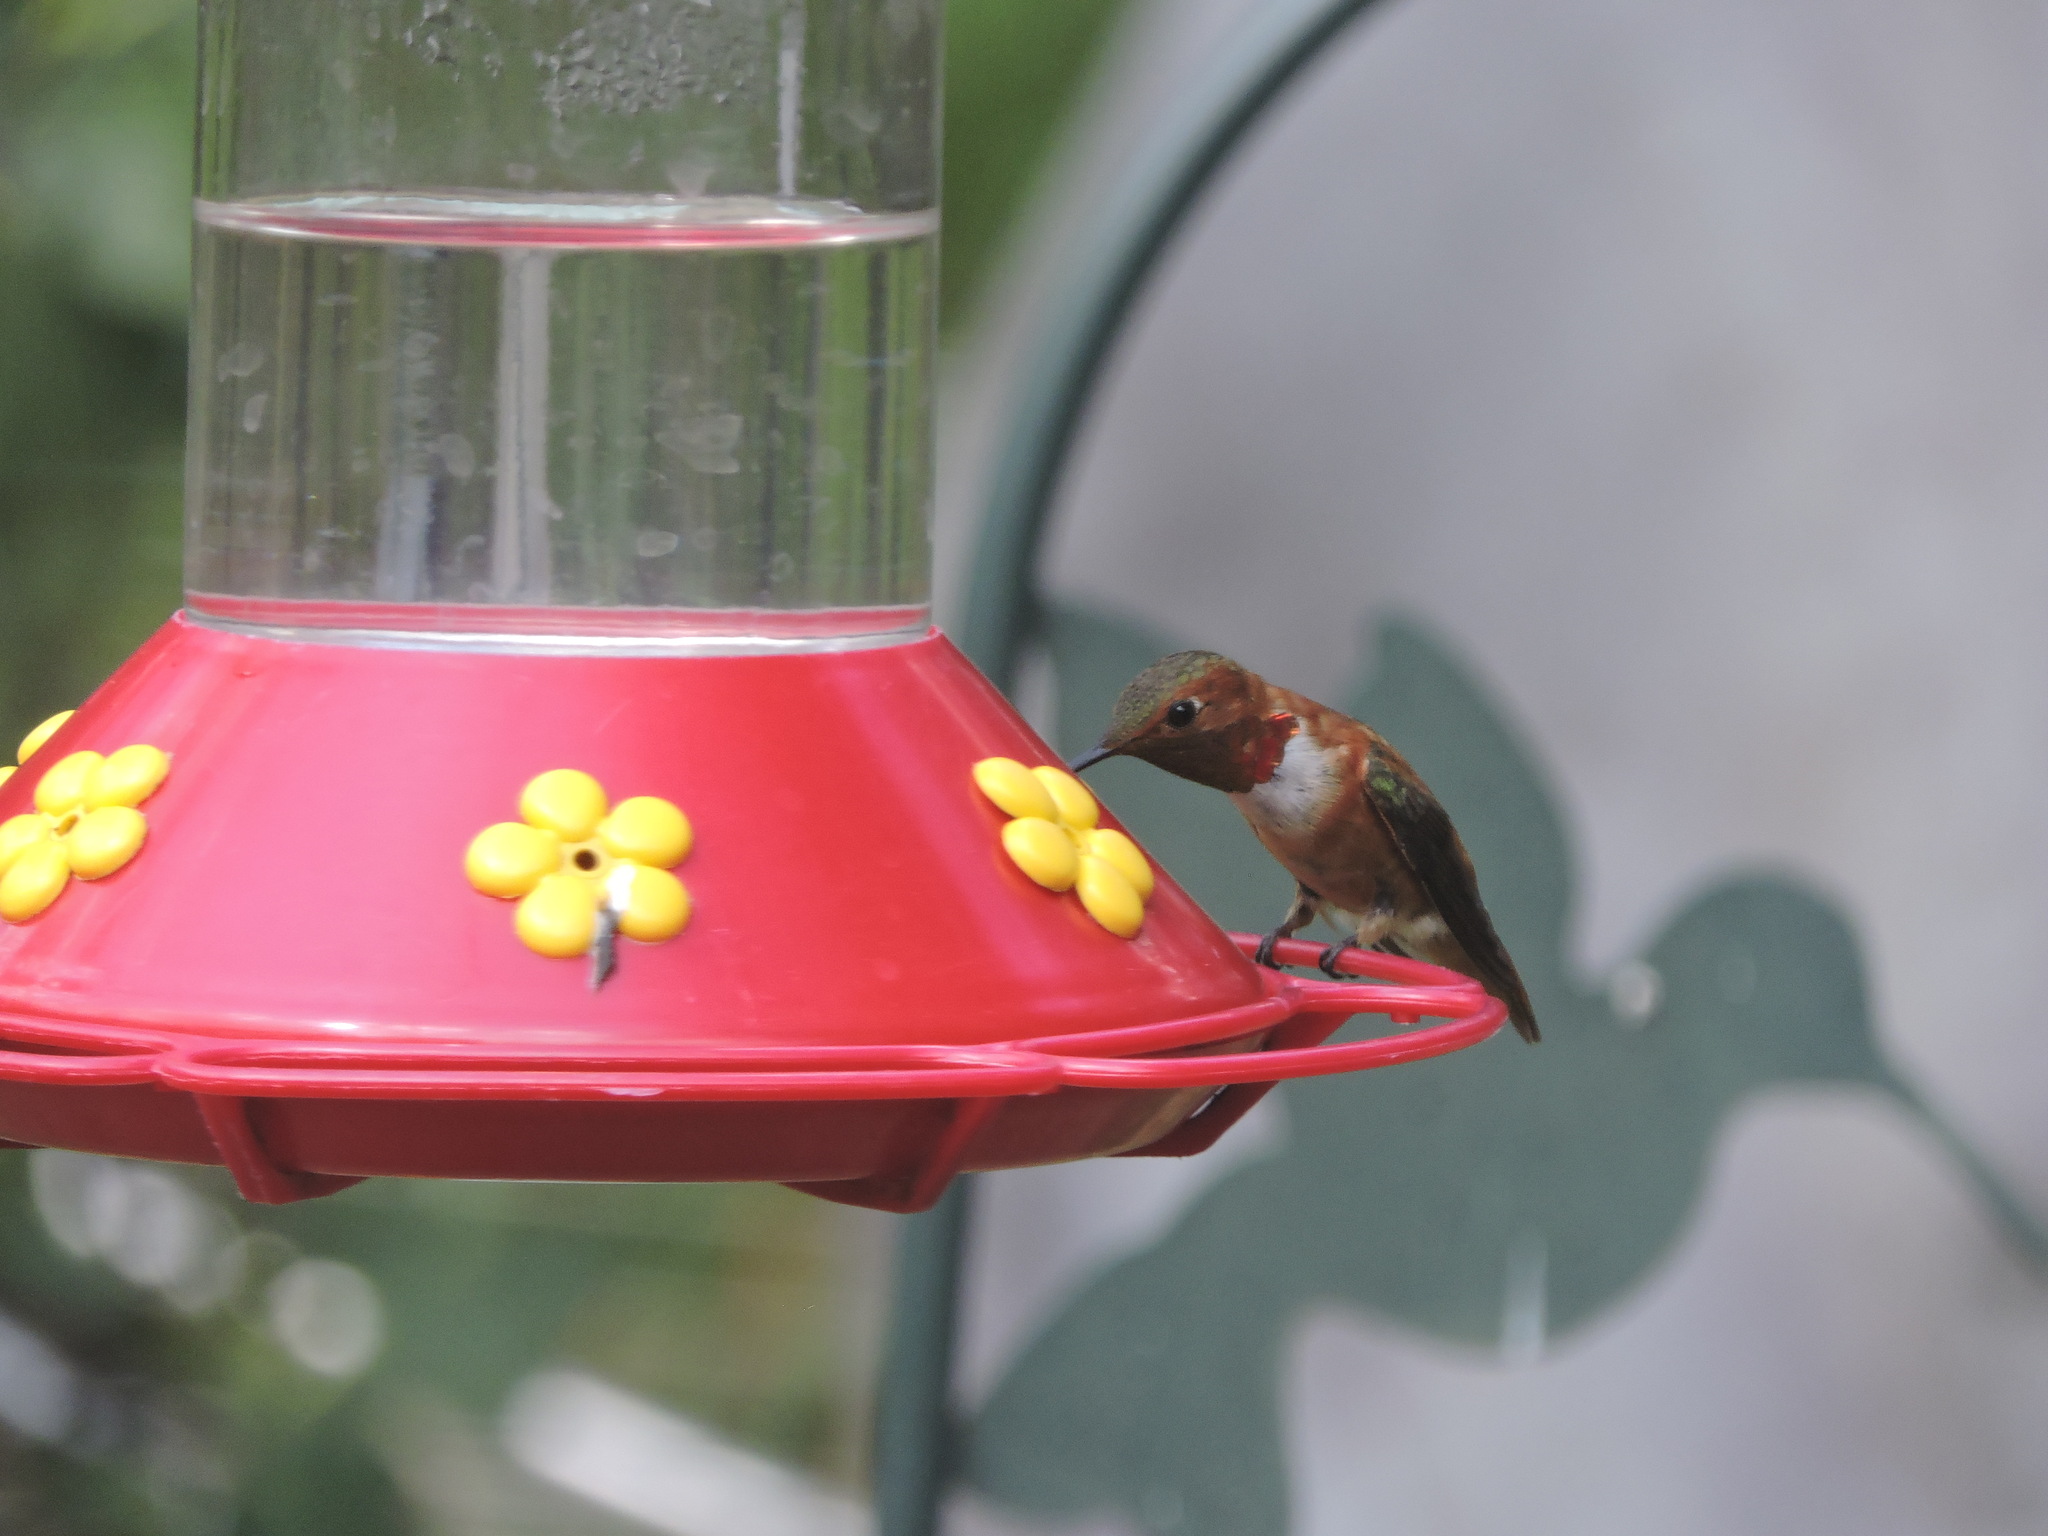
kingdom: Animalia
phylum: Chordata
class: Aves
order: Apodiformes
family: Trochilidae
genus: Selasphorus
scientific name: Selasphorus rufus
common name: Rufous hummingbird
